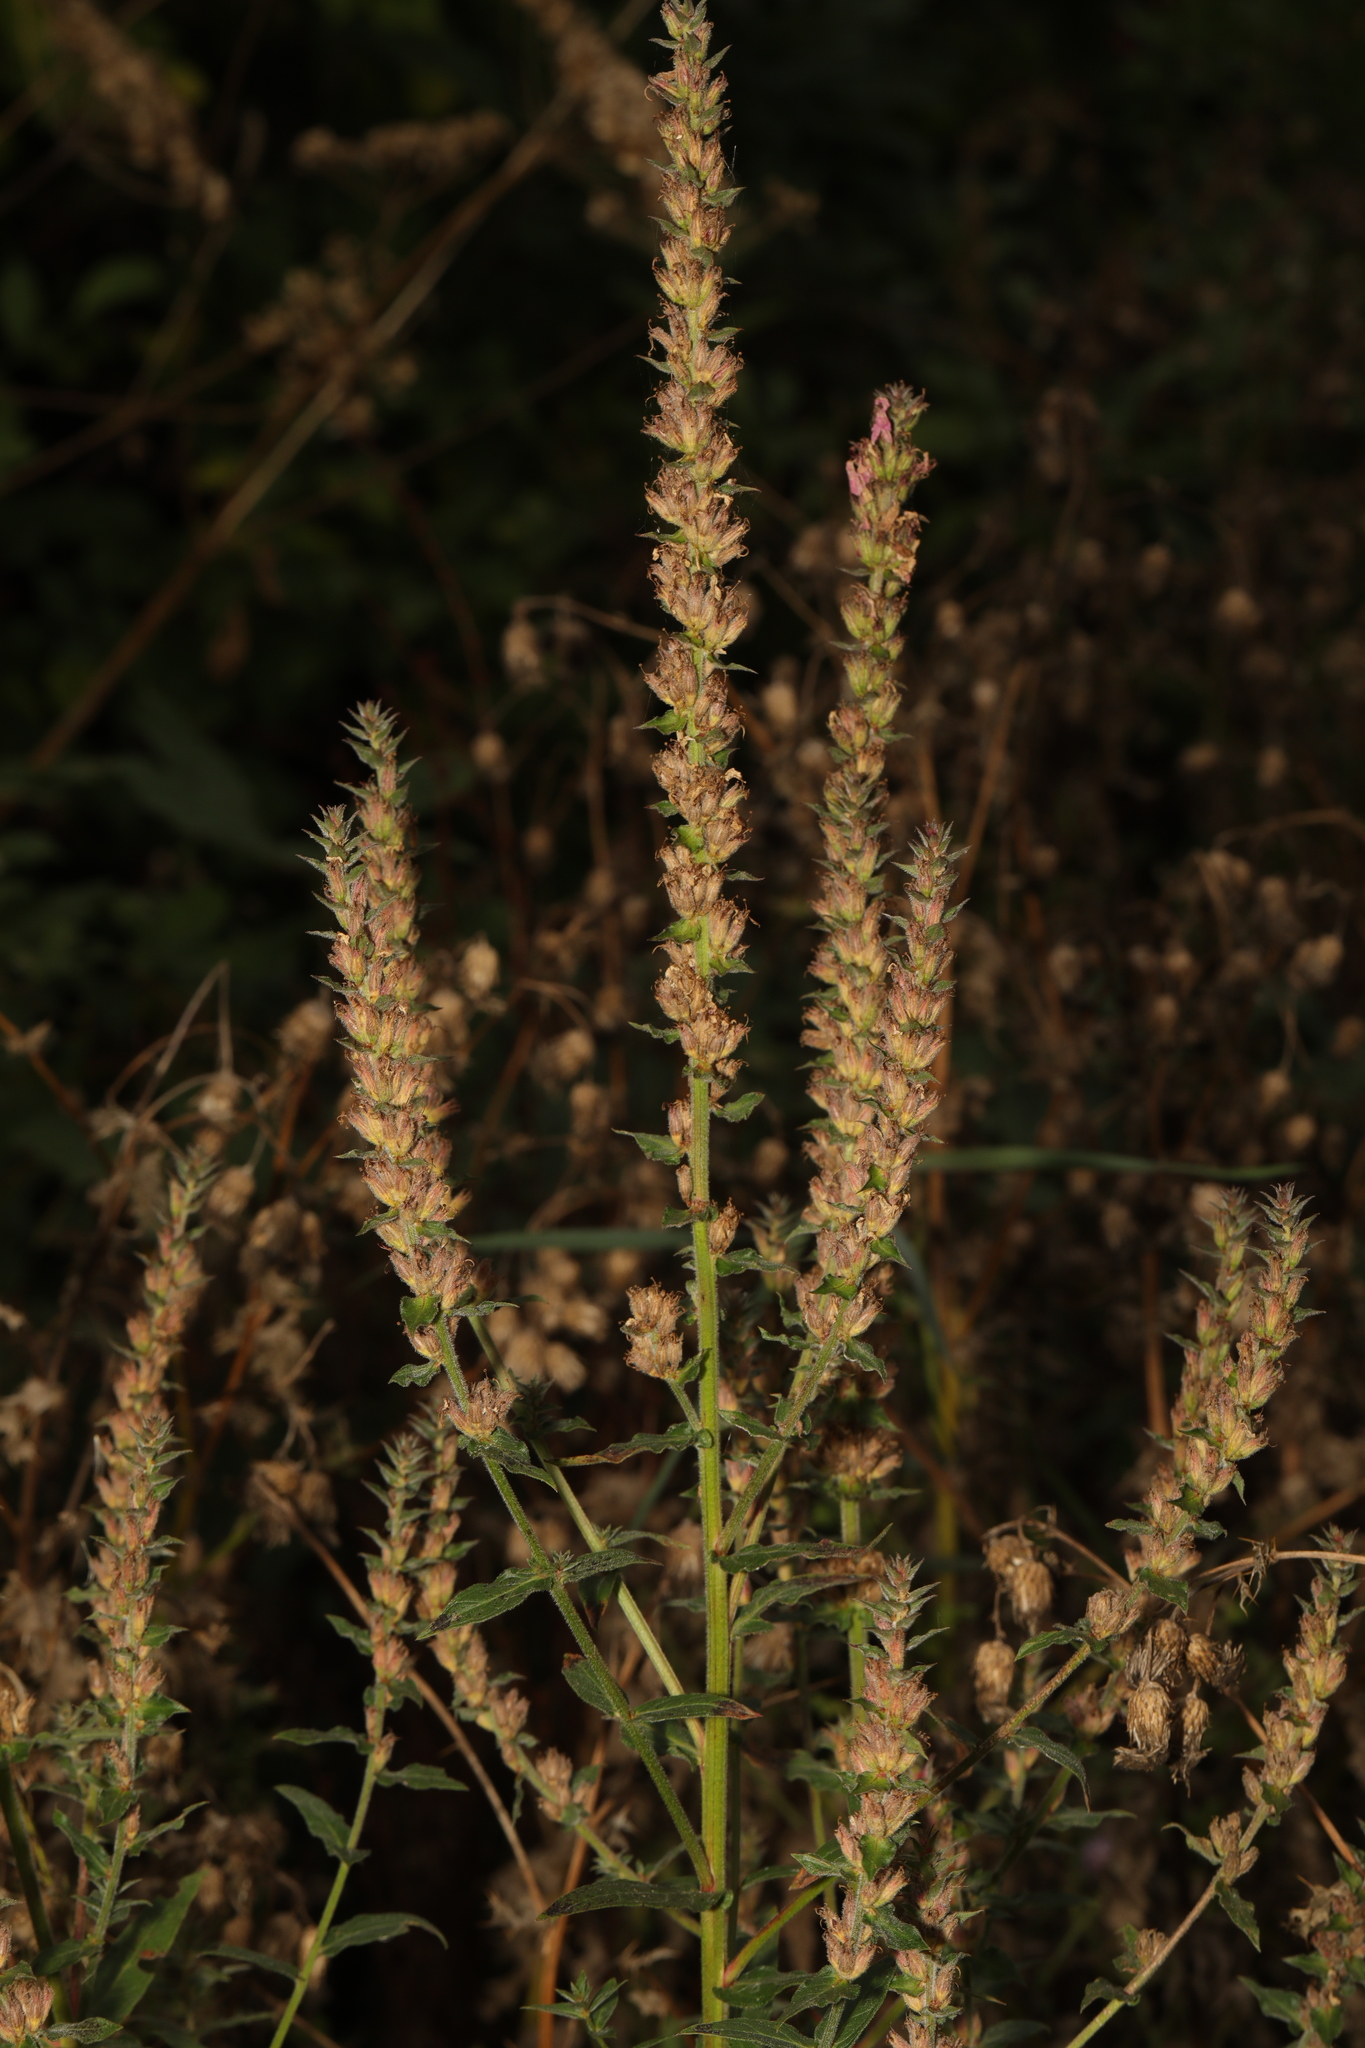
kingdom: Plantae
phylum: Tracheophyta
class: Magnoliopsida
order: Myrtales
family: Lythraceae
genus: Lythrum
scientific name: Lythrum salicaria
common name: Purple loosestrife
